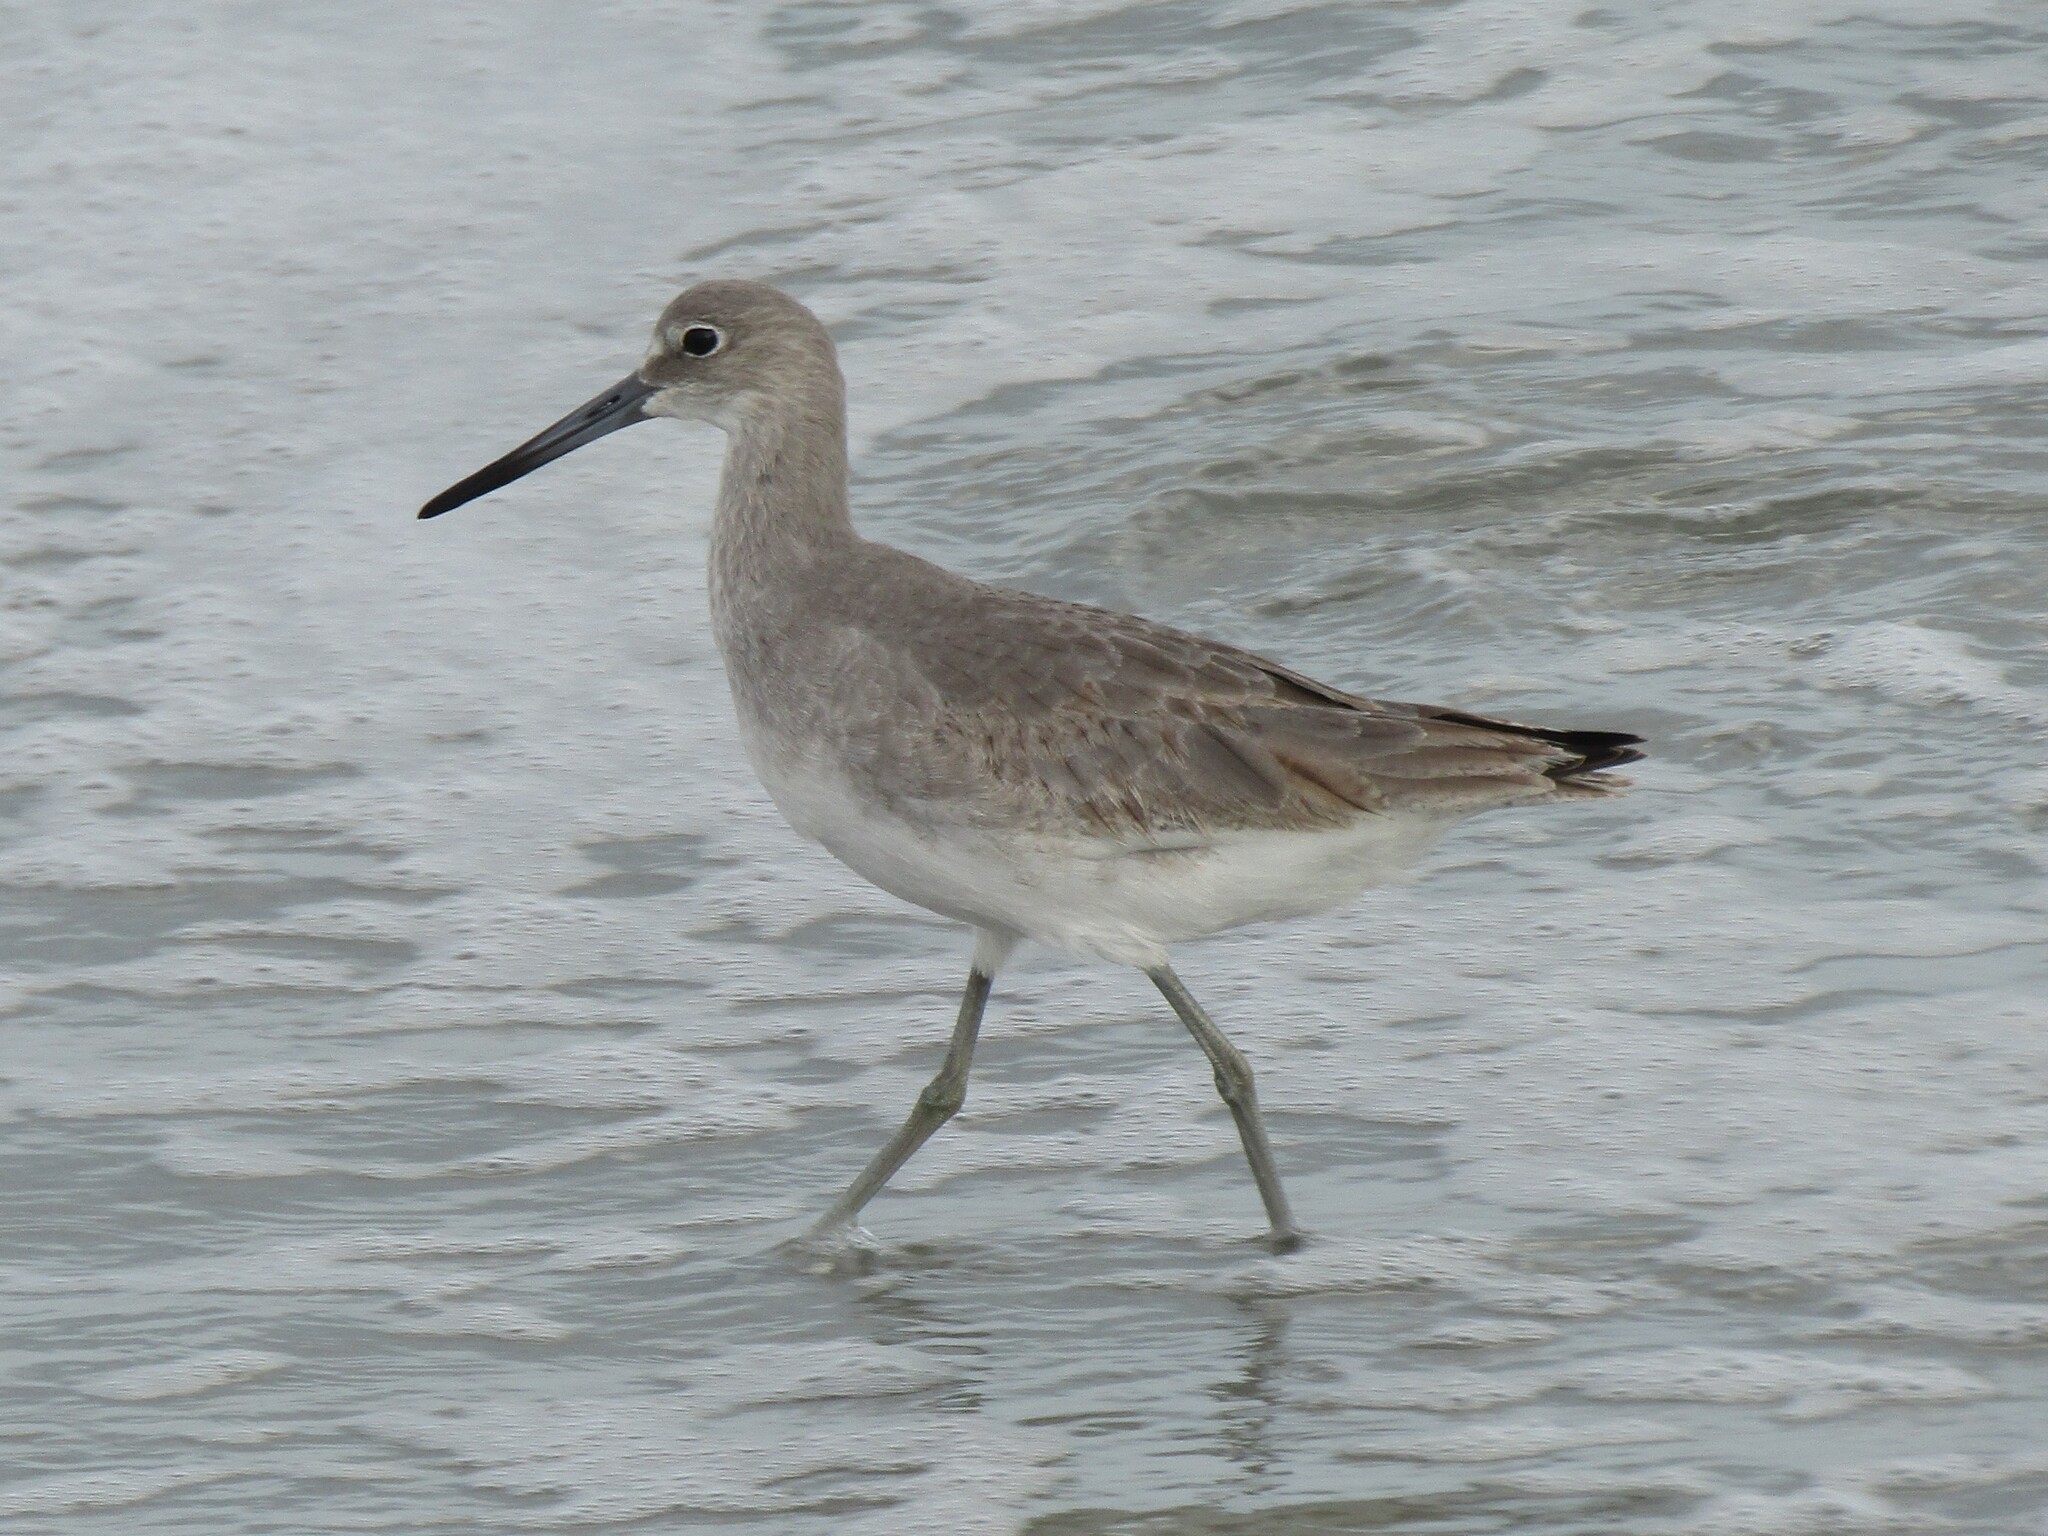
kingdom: Animalia
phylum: Chordata
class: Aves
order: Charadriiformes
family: Scolopacidae
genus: Tringa
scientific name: Tringa semipalmata
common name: Willet
